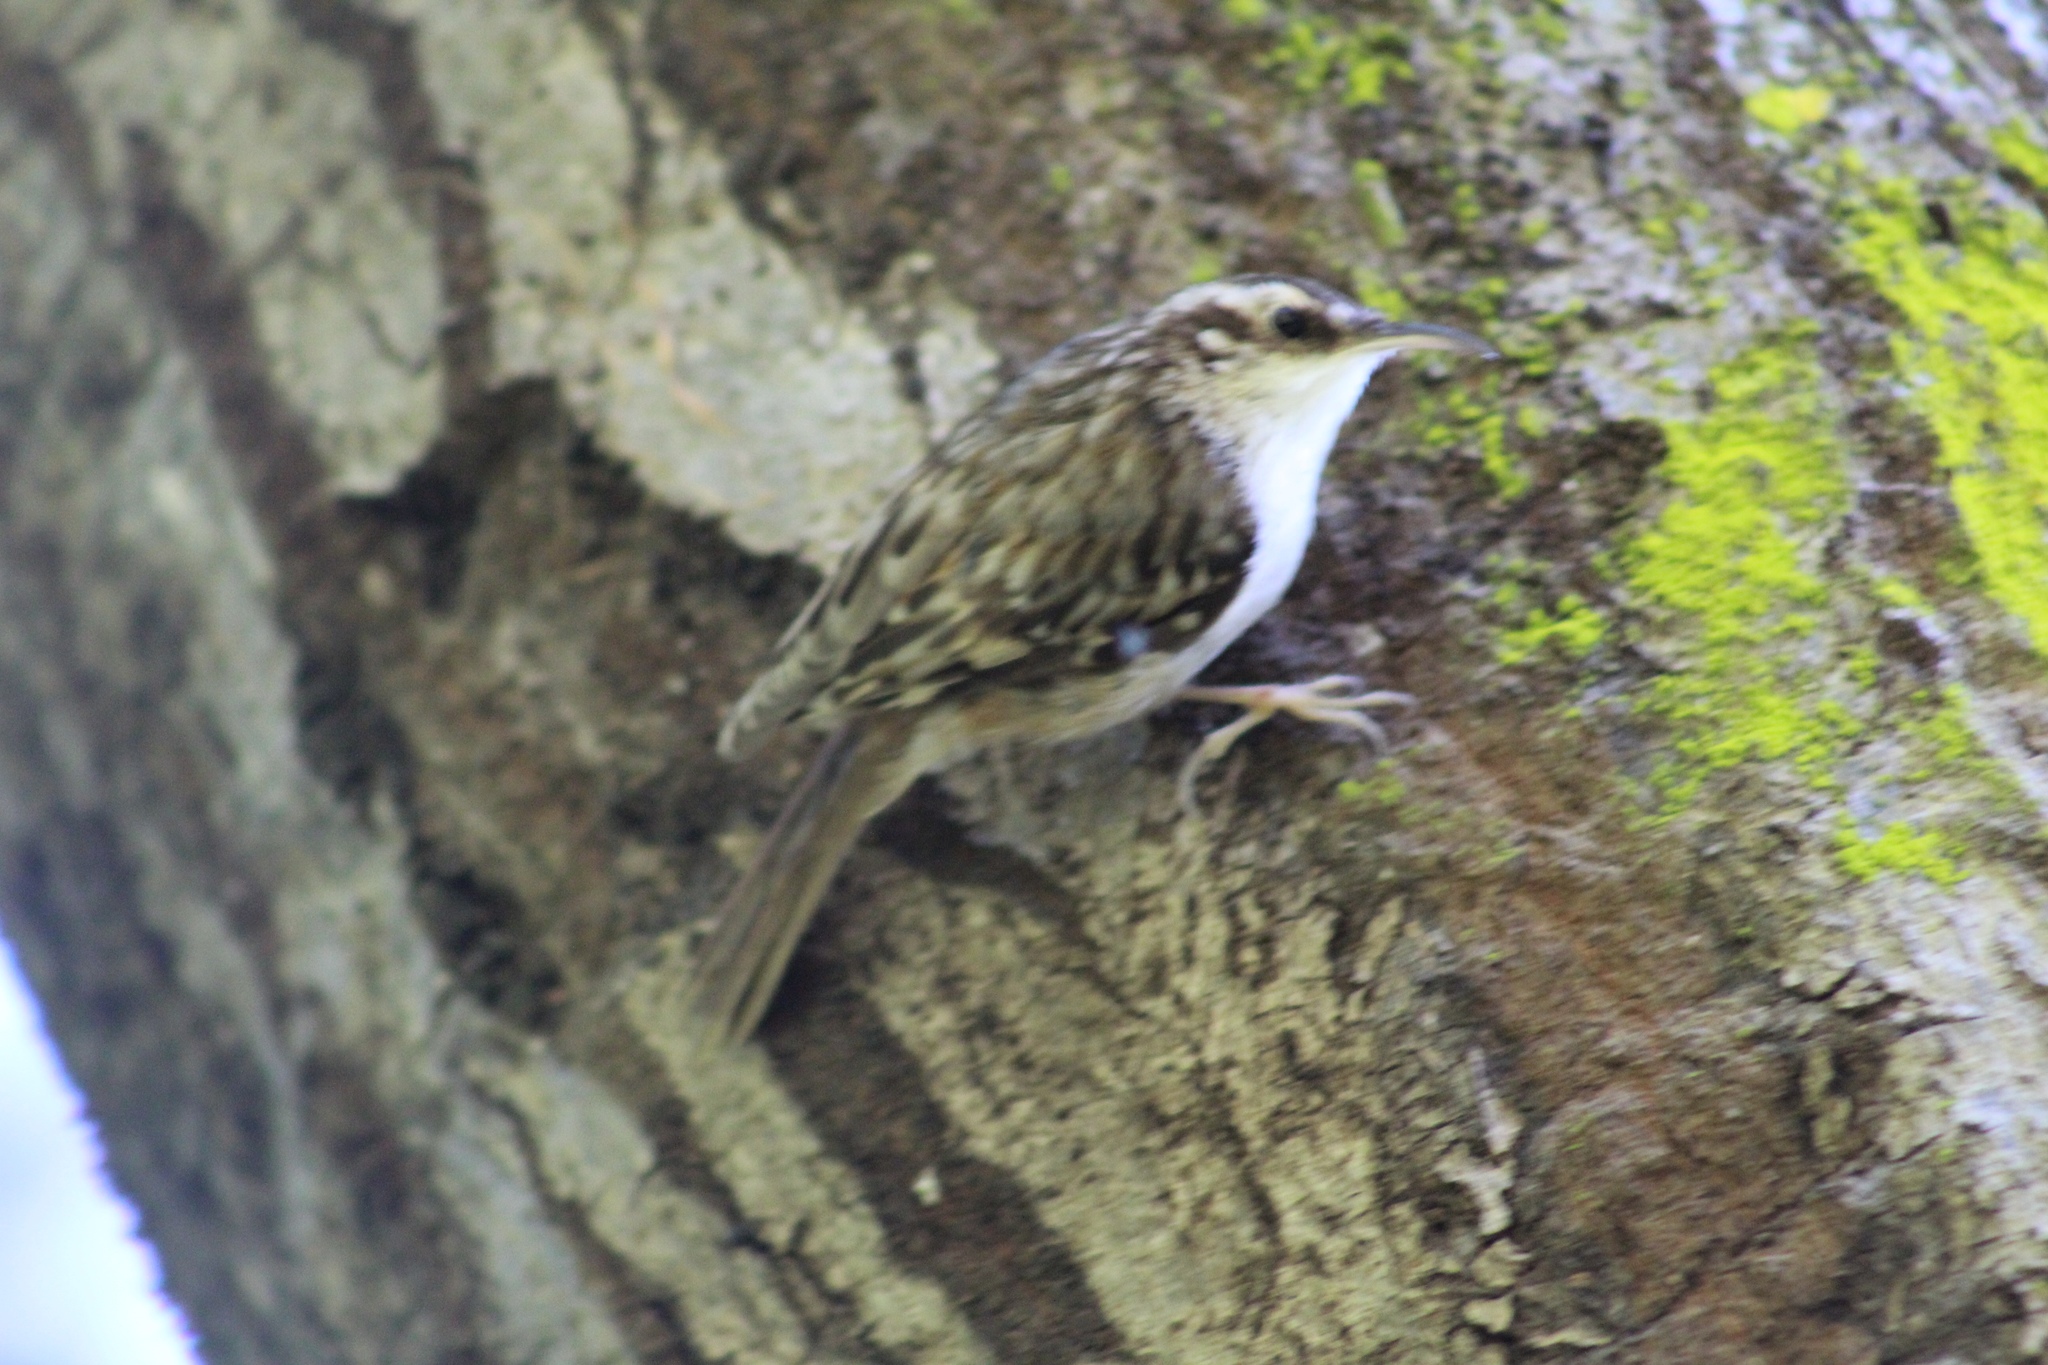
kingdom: Animalia
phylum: Chordata
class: Aves
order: Passeriformes
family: Certhiidae
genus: Certhia
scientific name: Certhia americana
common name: Brown creeper
